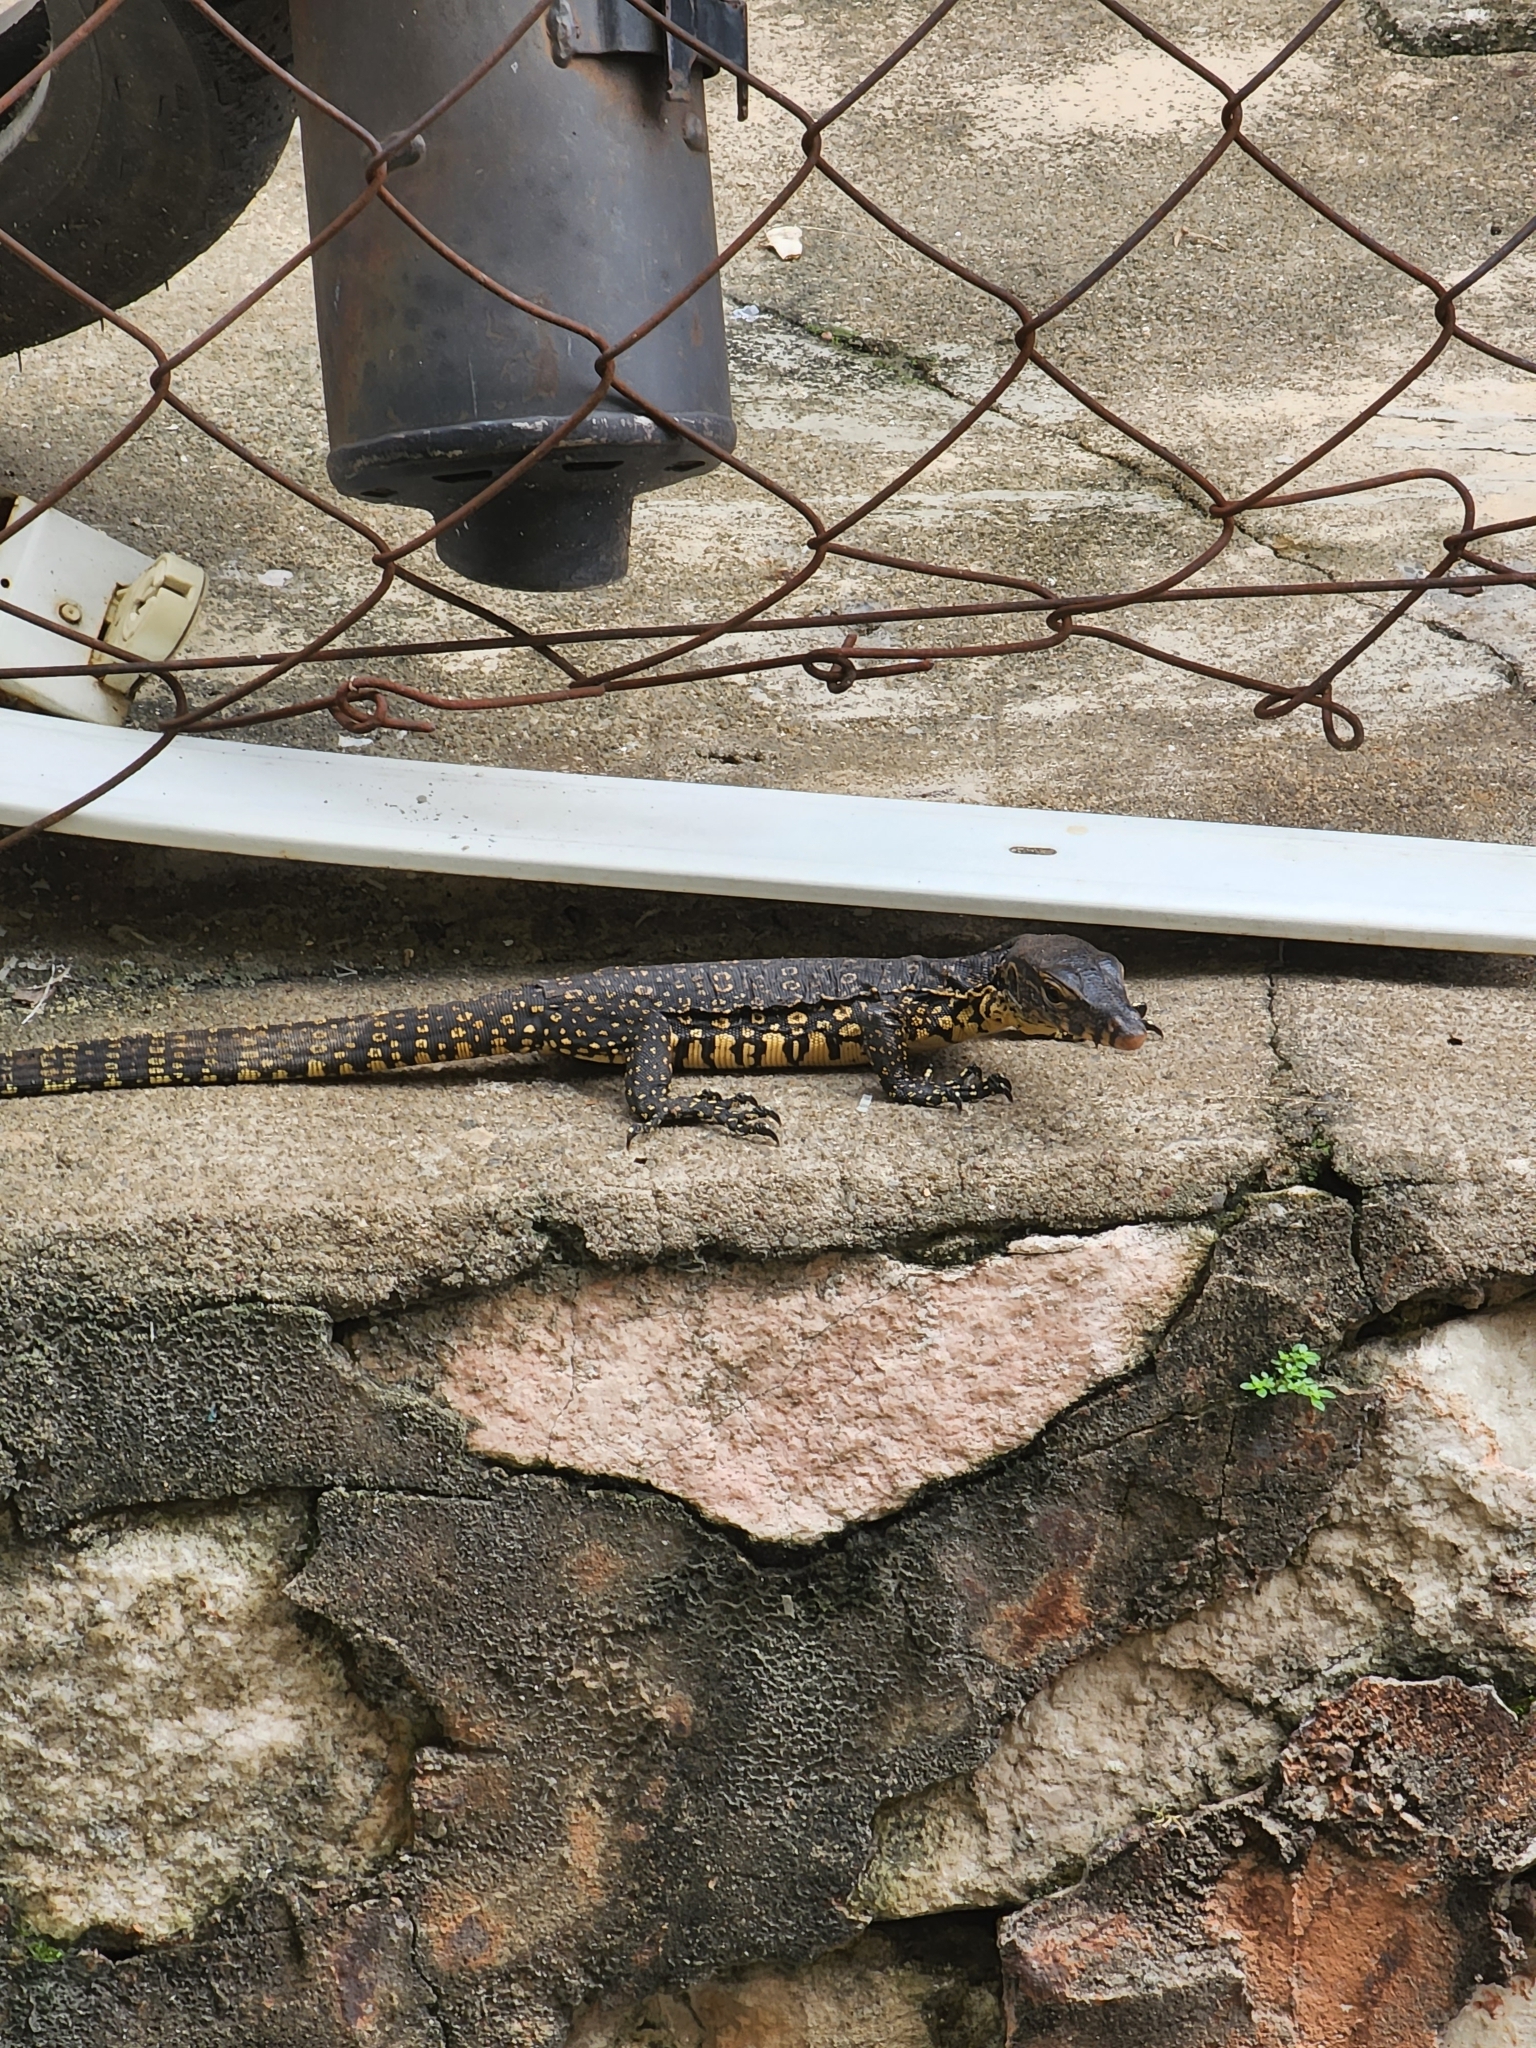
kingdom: Animalia
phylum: Chordata
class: Squamata
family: Varanidae
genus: Varanus
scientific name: Varanus salvator
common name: Common water monitor
